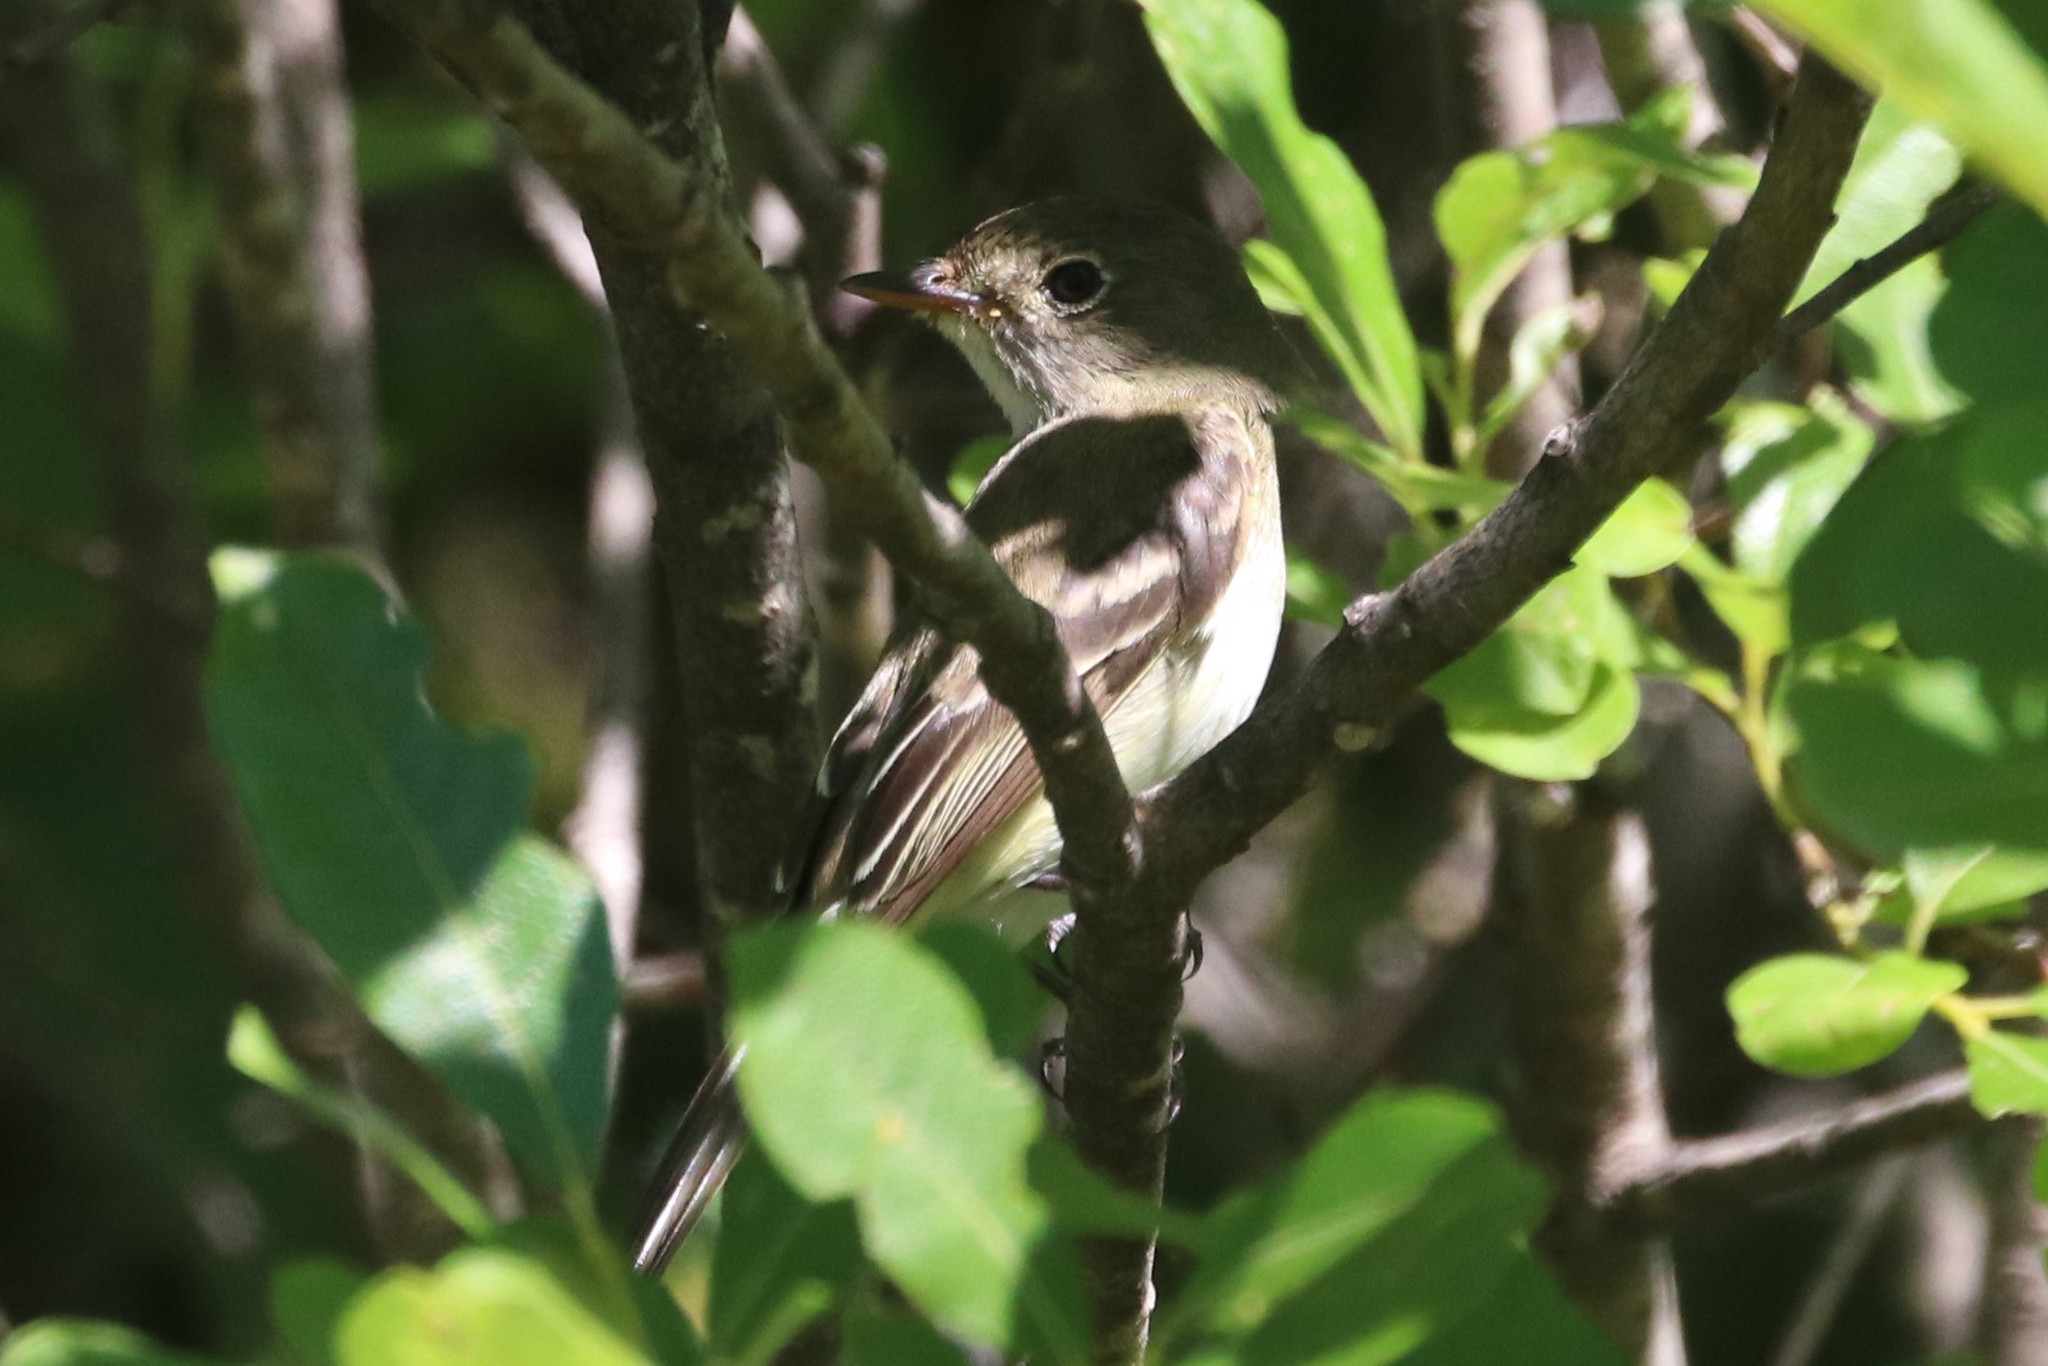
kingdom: Animalia
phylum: Chordata
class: Aves
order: Passeriformes
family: Tyrannidae
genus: Empidonax
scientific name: Empidonax alnorum
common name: Alder flycatcher
